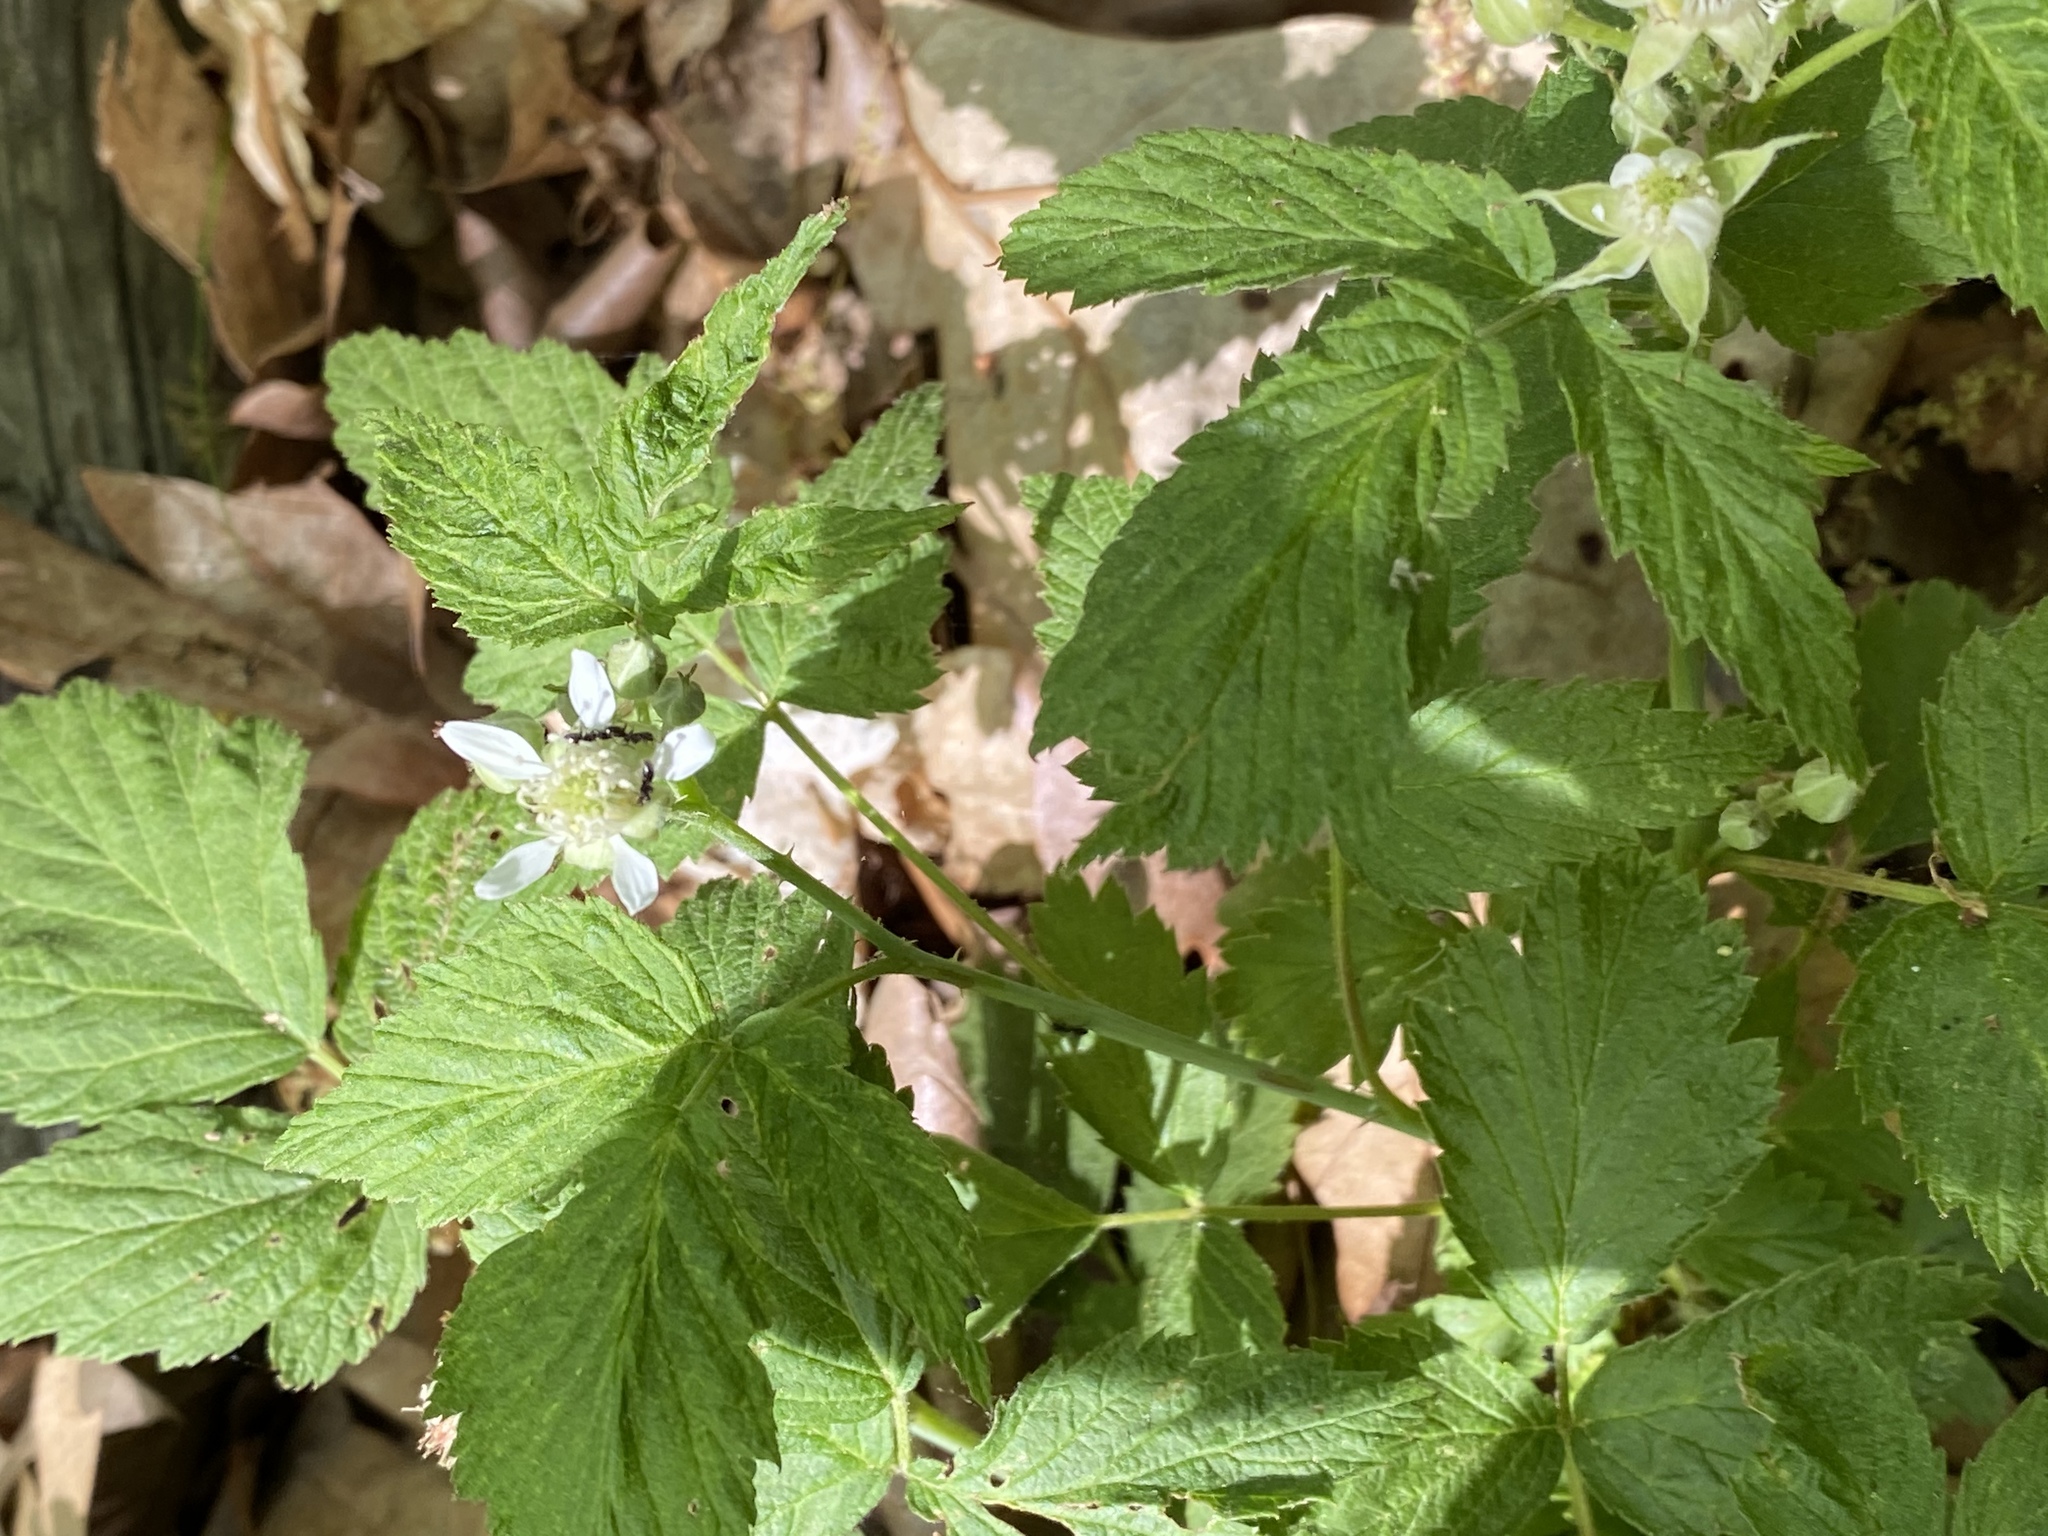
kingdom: Plantae
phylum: Tracheophyta
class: Magnoliopsida
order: Rosales
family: Rosaceae
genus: Rubus
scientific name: Rubus occidentalis
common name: Black raspberry
